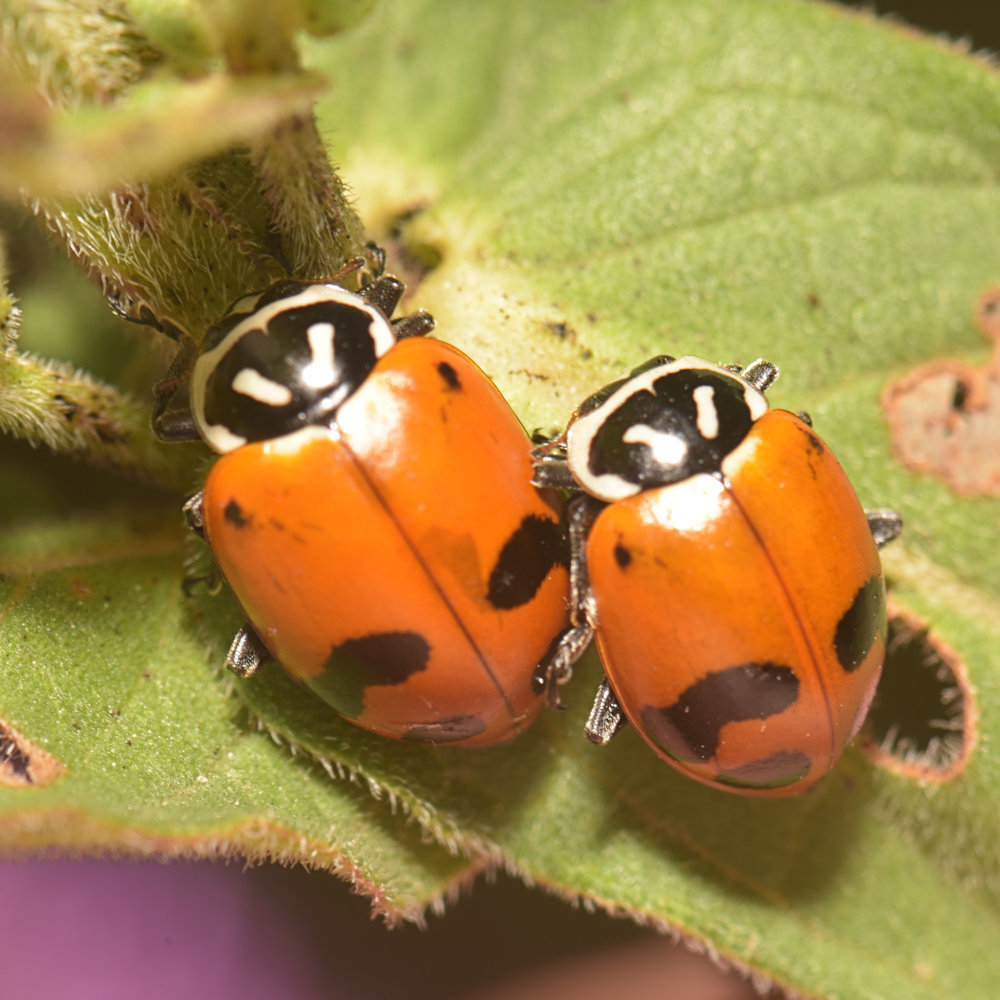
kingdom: Animalia
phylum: Arthropoda
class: Insecta
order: Coleoptera
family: Coccinellidae
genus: Hippodamia
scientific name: Hippodamia glacialis
